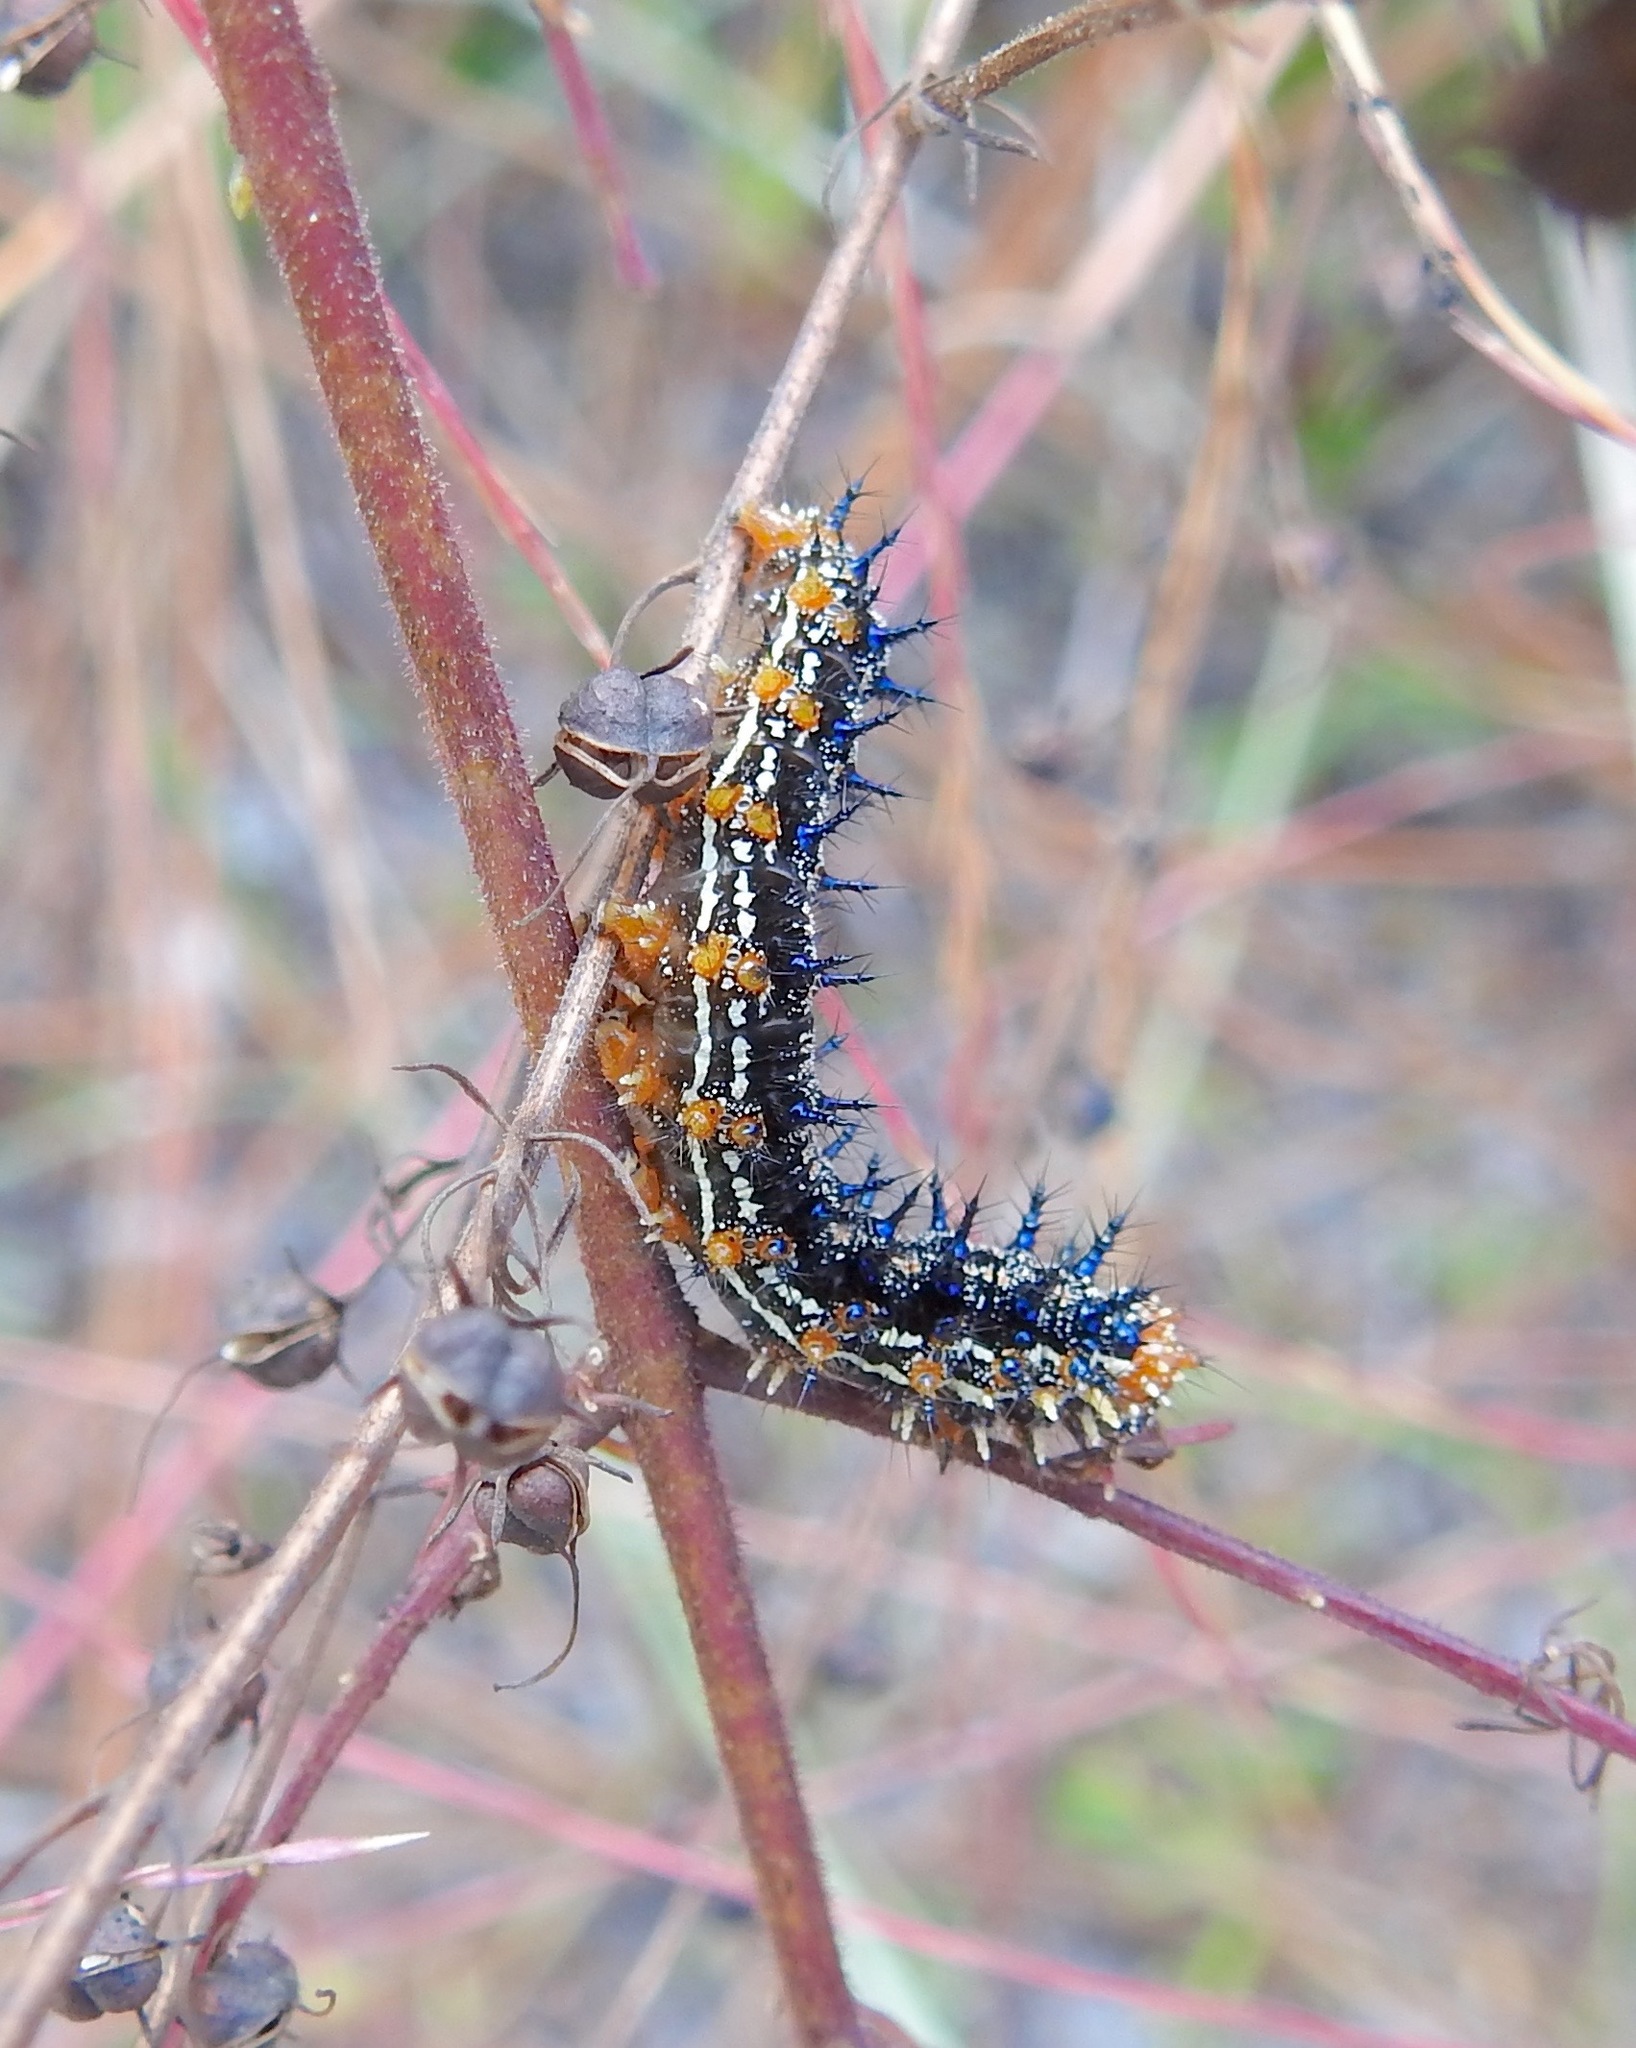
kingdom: Animalia
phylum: Arthropoda
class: Insecta
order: Lepidoptera
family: Nymphalidae
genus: Junonia
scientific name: Junonia coenia
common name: Common buckeye
